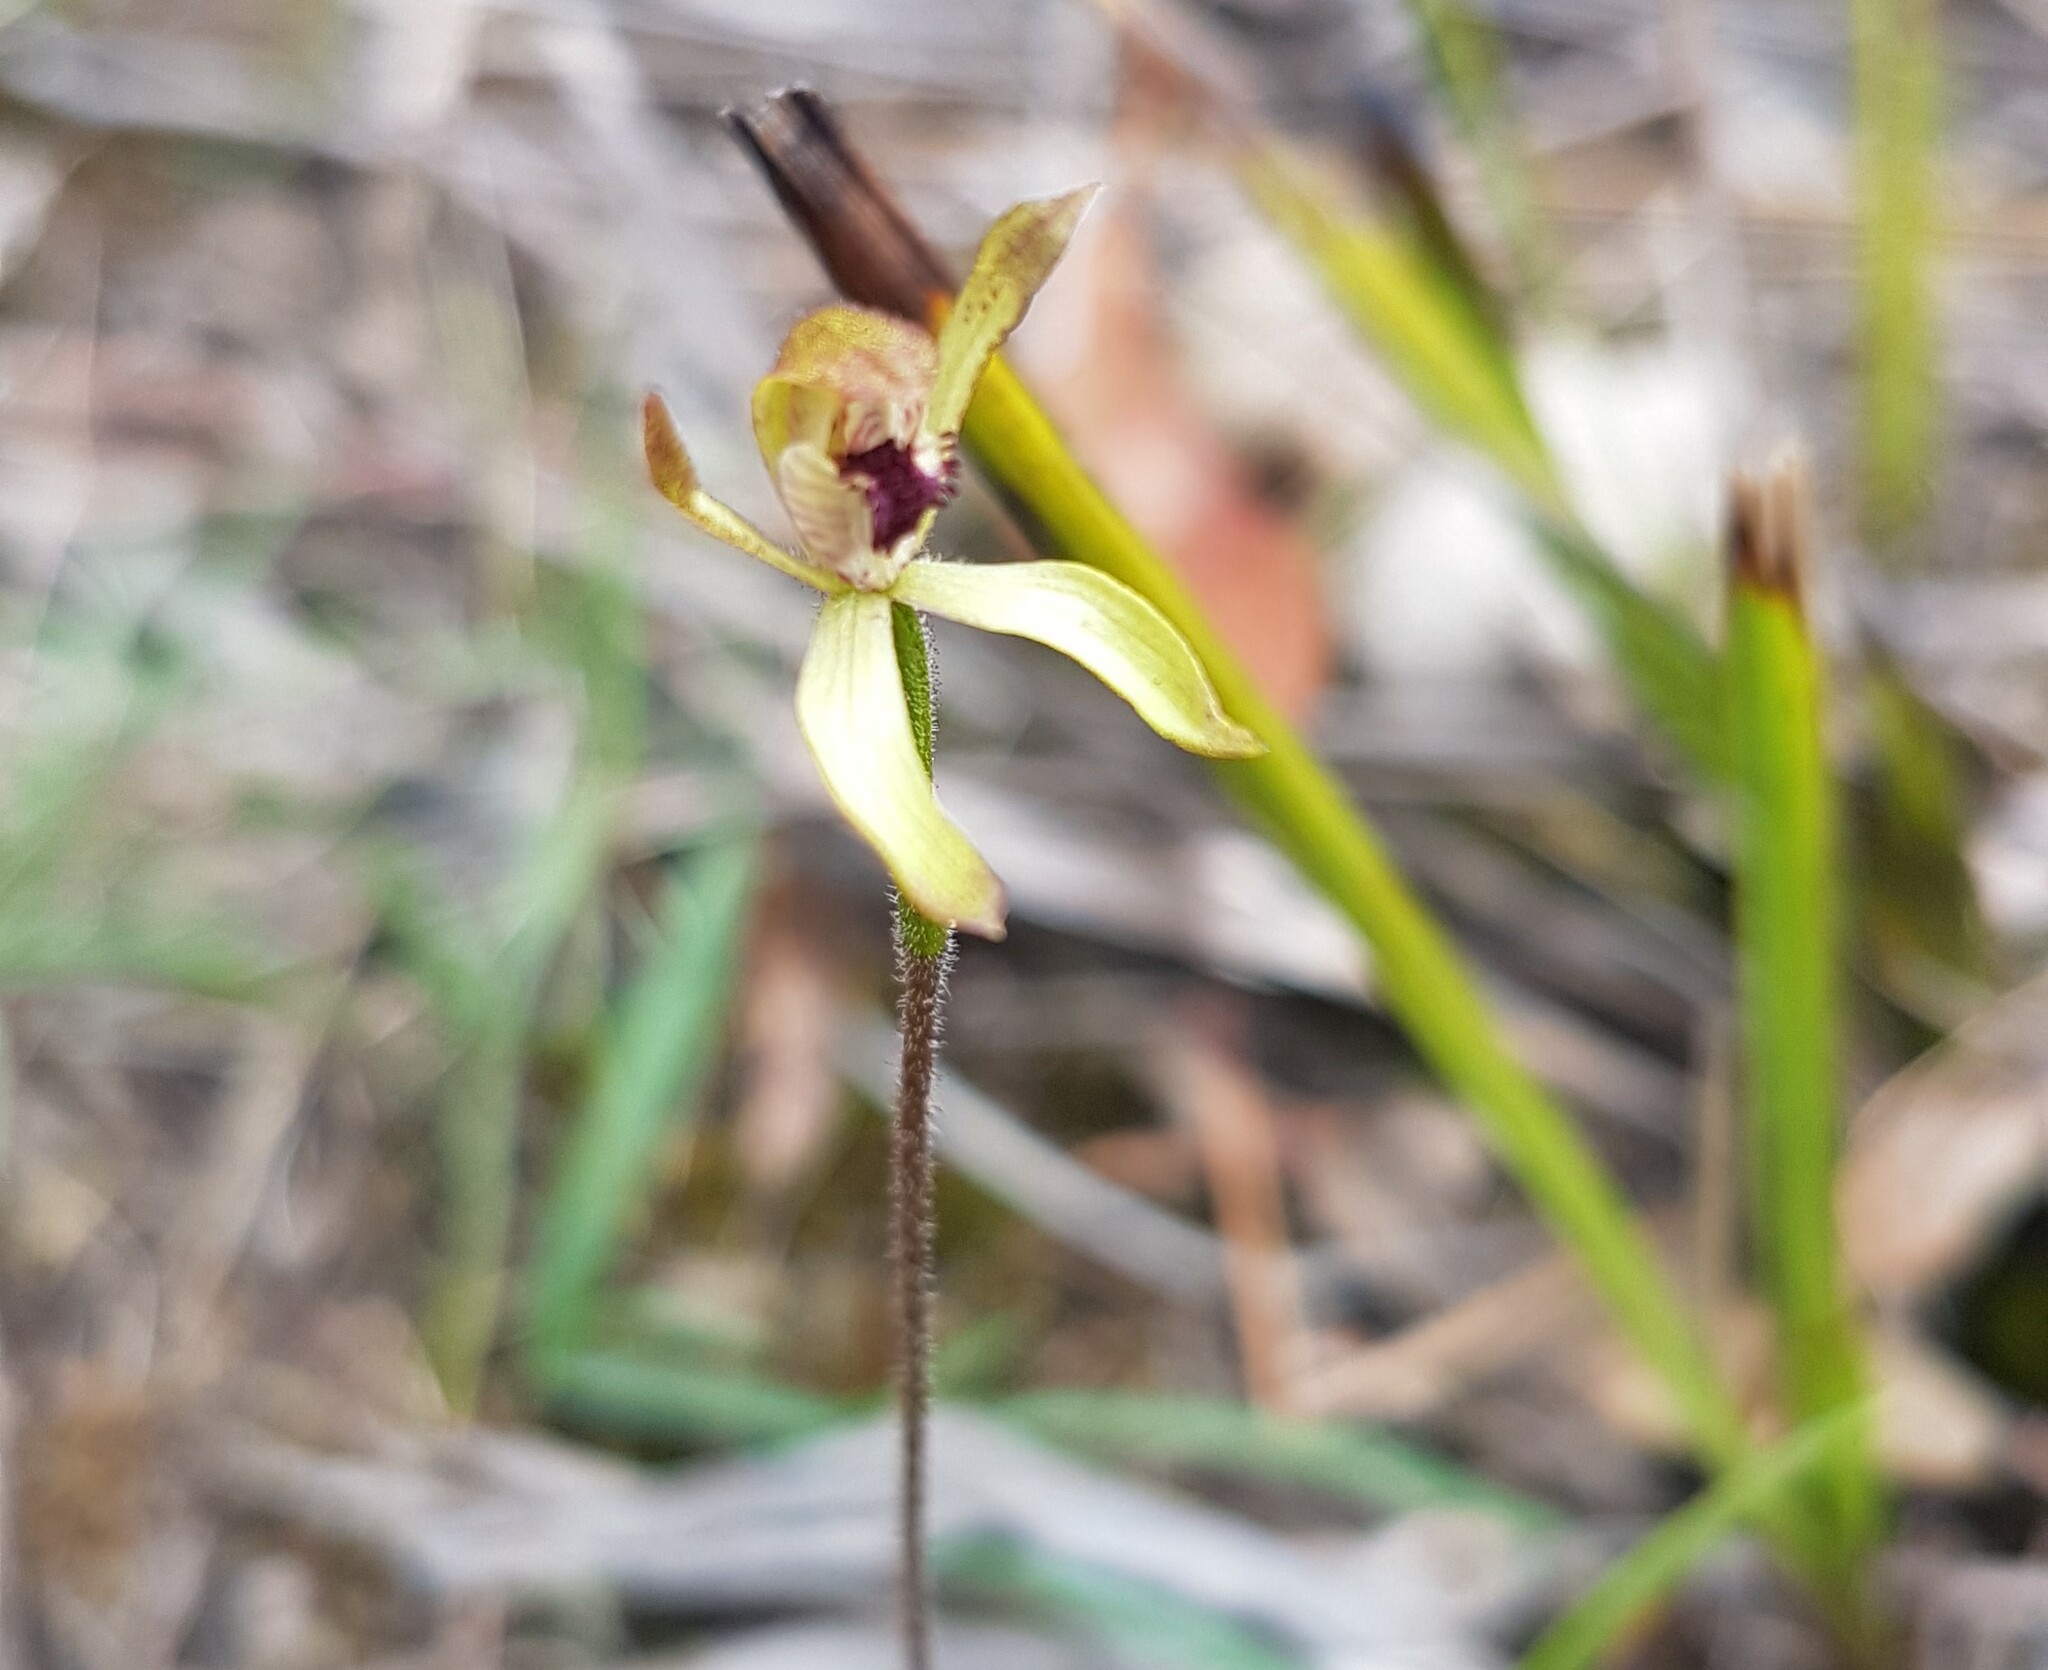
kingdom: Plantae
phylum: Tracheophyta
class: Liliopsida
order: Asparagales
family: Orchidaceae
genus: Caladenia
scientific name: Caladenia transitoria
